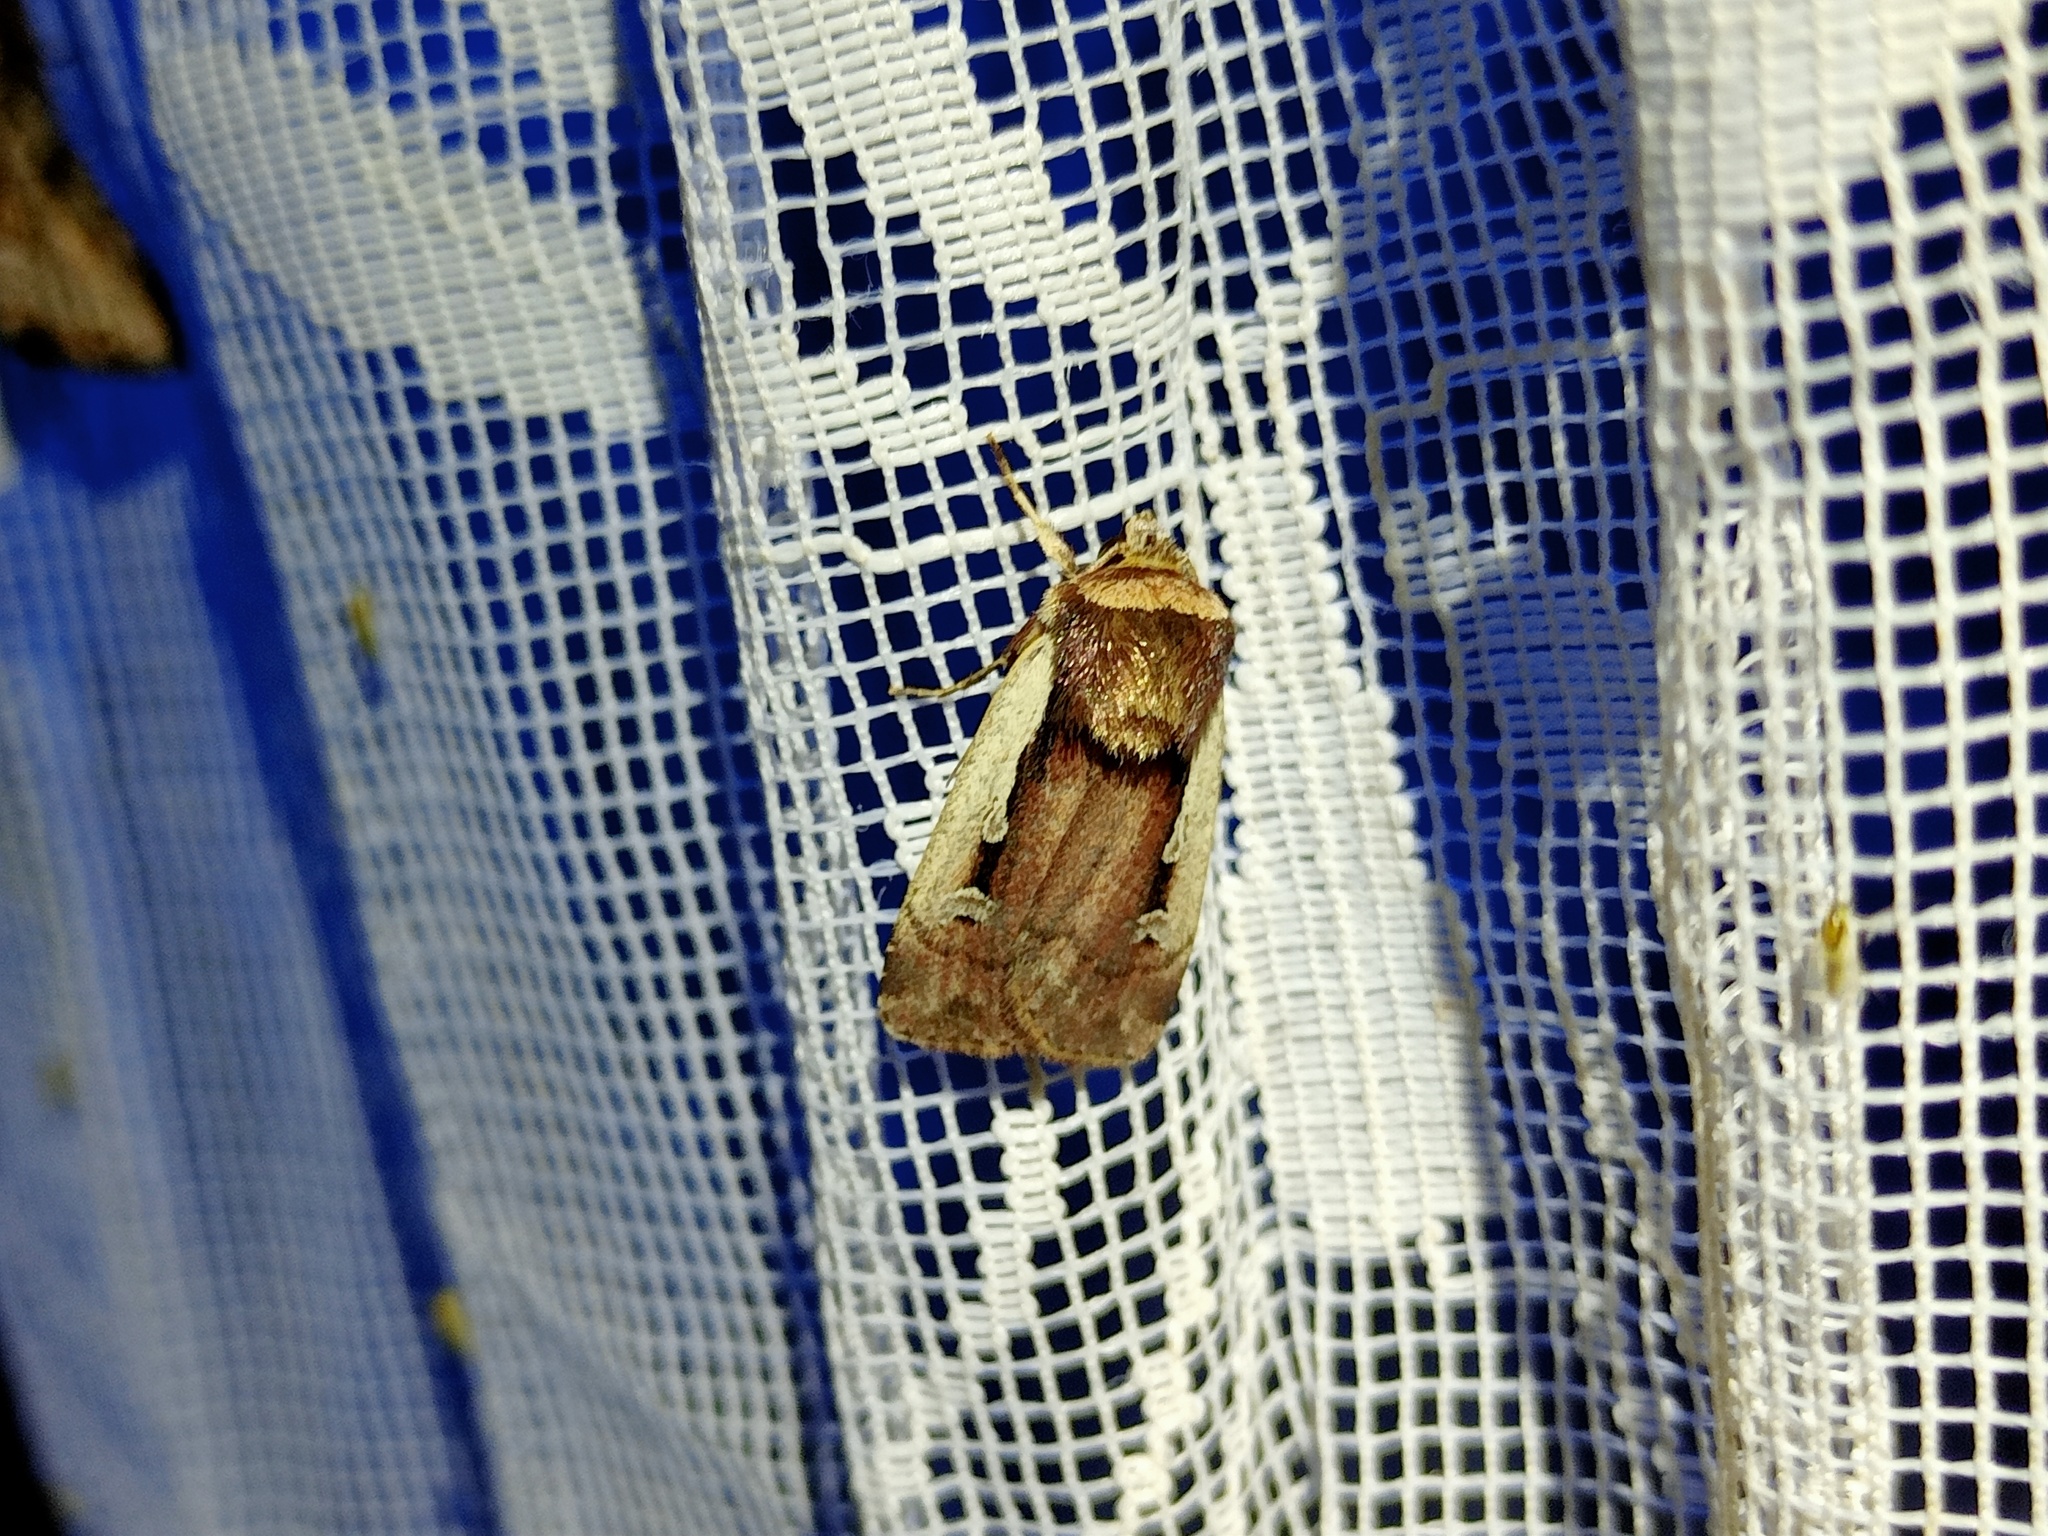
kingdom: Animalia
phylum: Arthropoda
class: Insecta
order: Lepidoptera
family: Noctuidae
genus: Ochropleura
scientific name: Ochropleura plecta
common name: Flame shoulder
